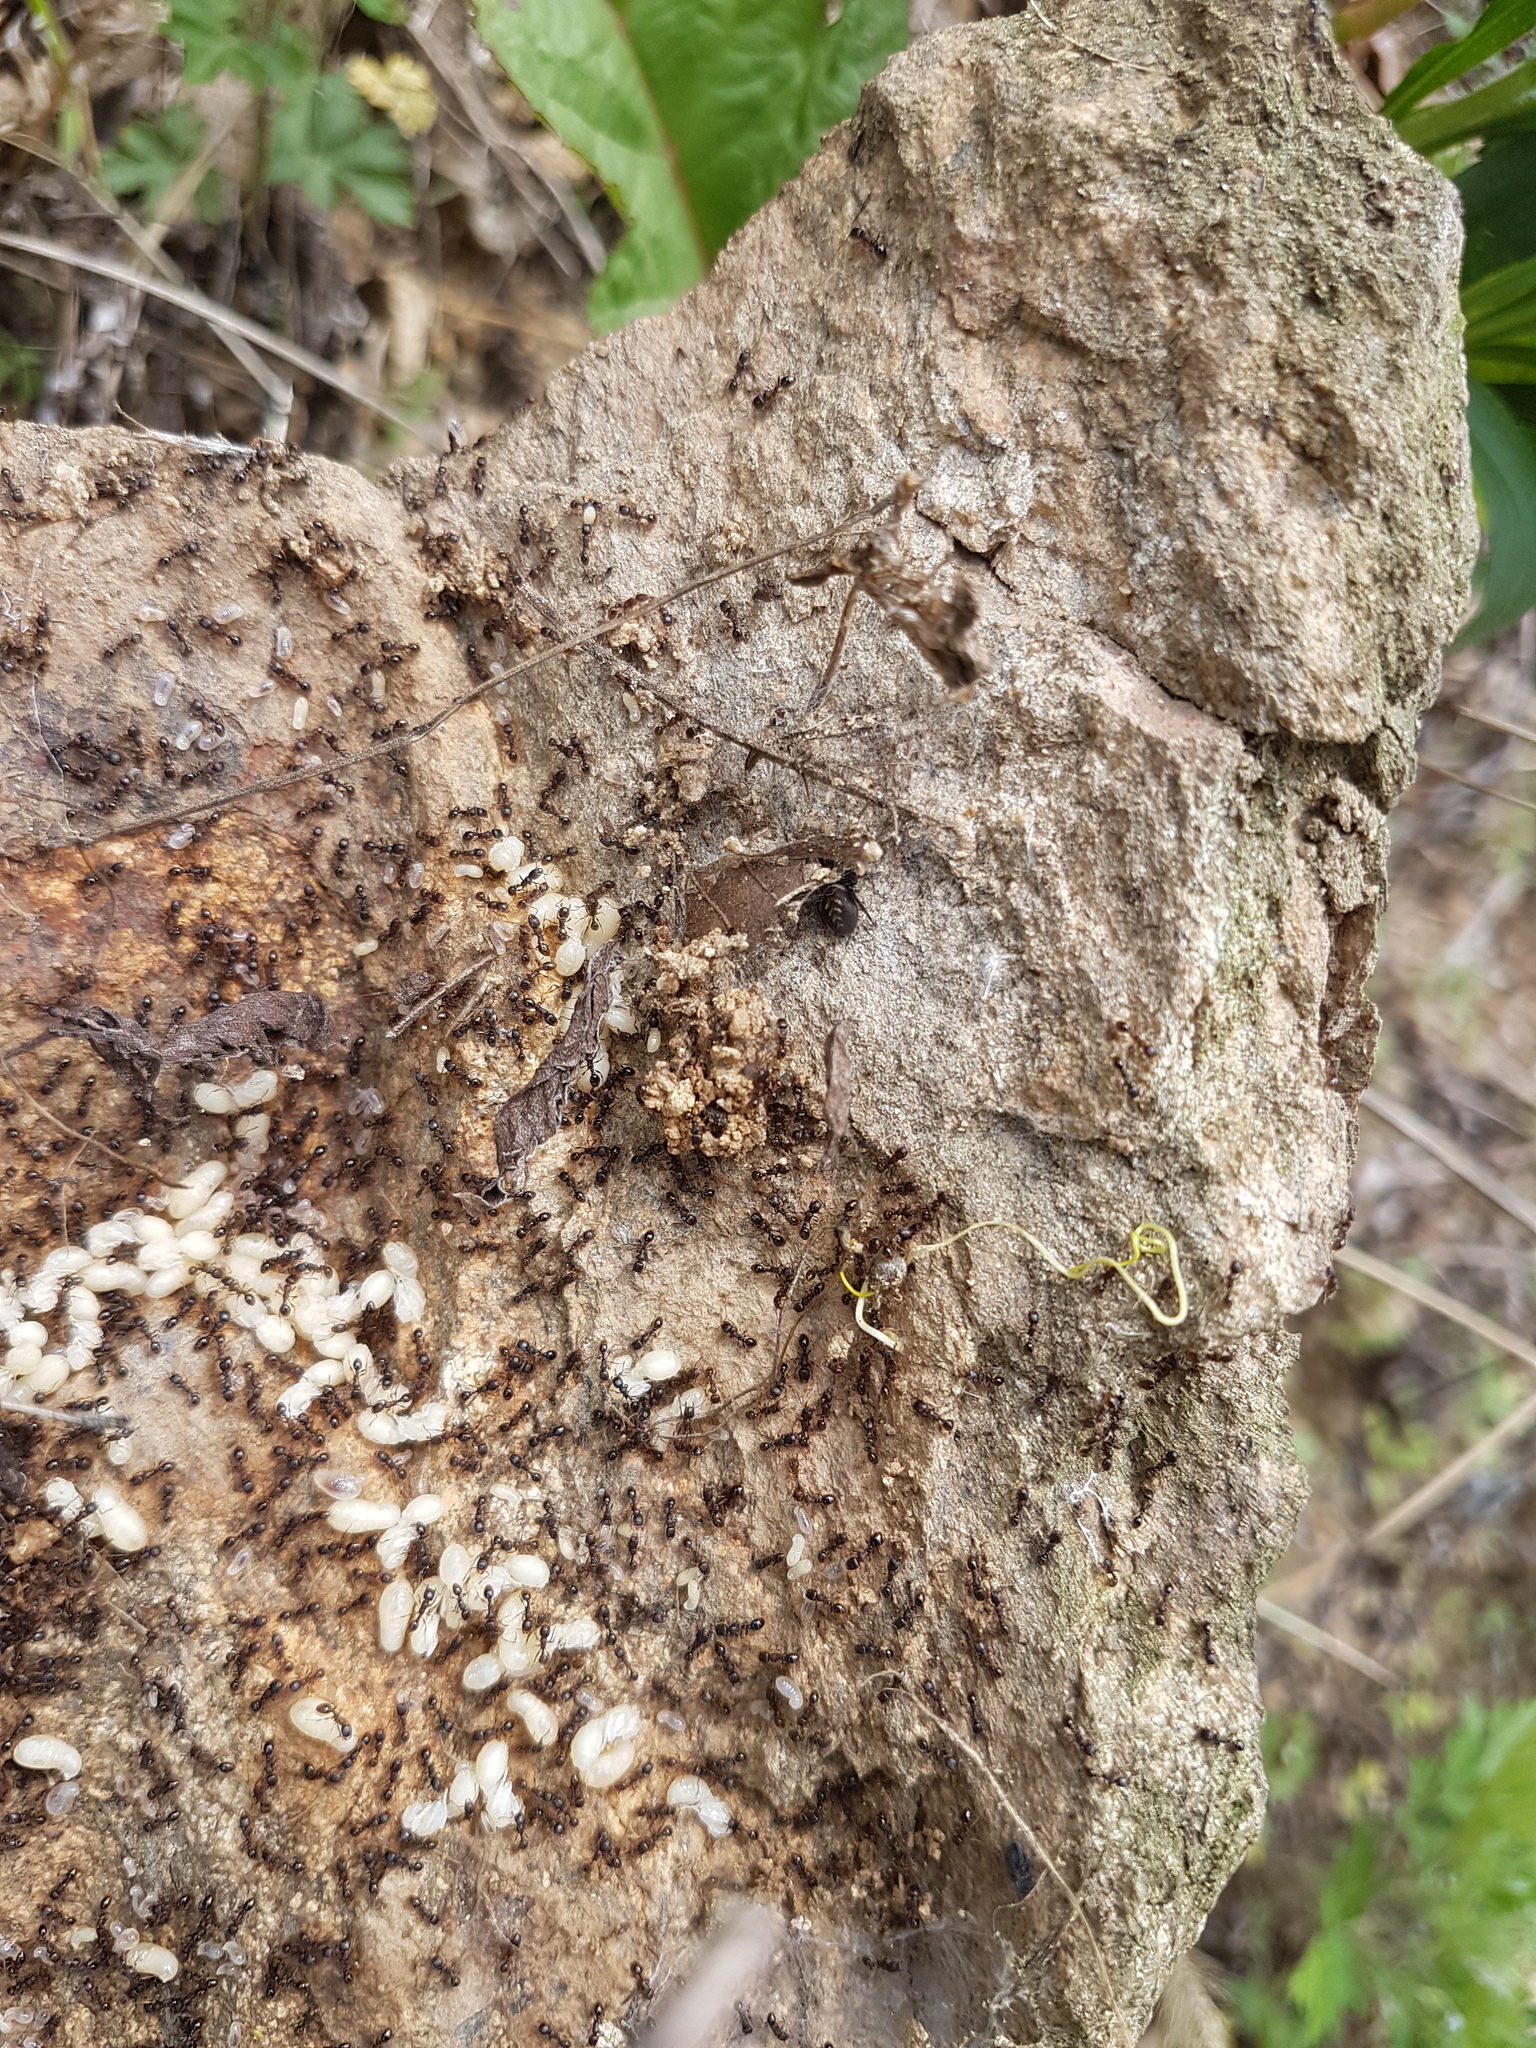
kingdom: Animalia
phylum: Arthropoda
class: Insecta
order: Hymenoptera
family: Formicidae
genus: Tetramorium
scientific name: Tetramorium tsushimae
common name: Ant
